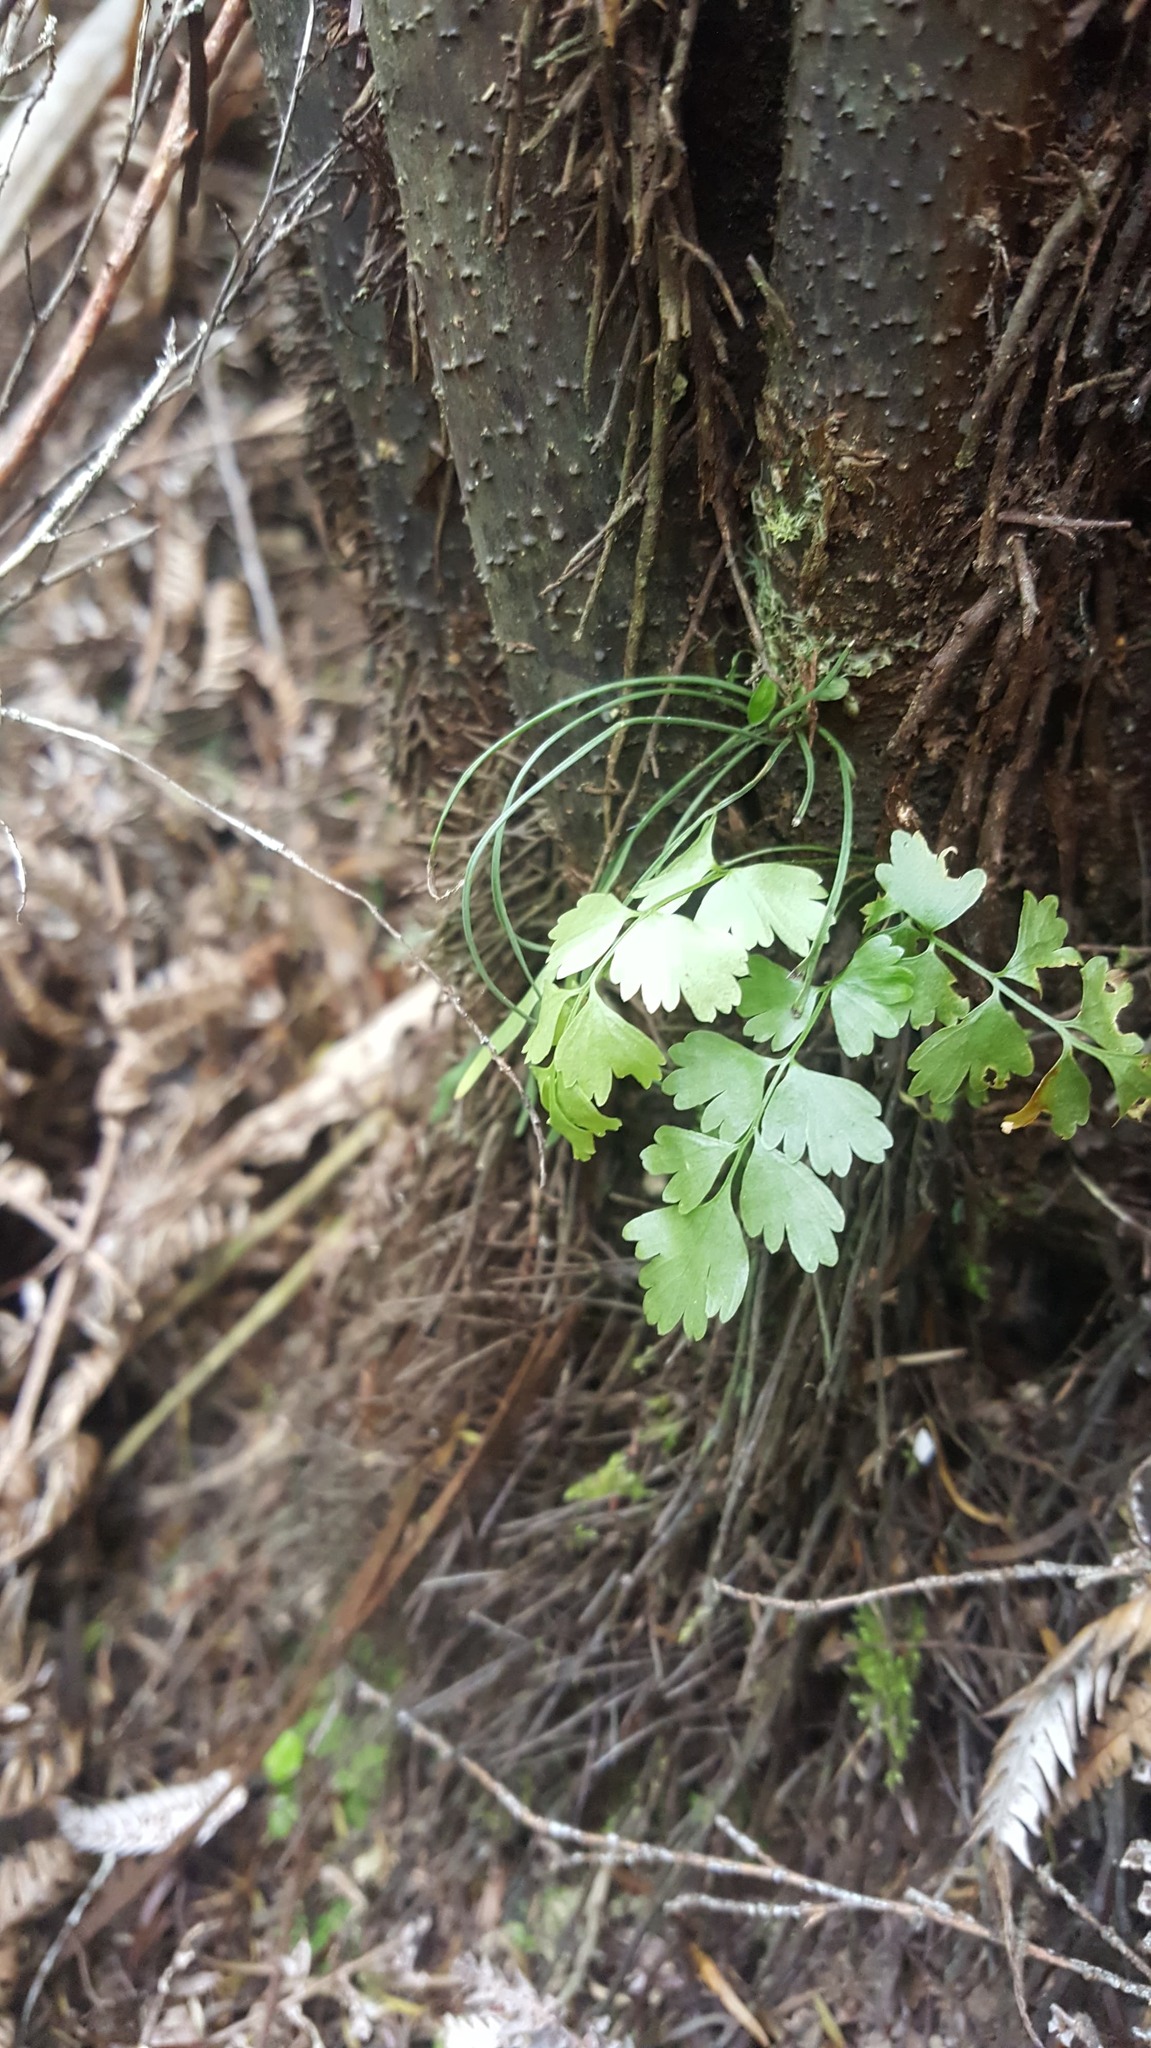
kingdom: Plantae
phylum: Tracheophyta
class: Polypodiopsida
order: Polypodiales
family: Aspleniaceae
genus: Asplenium
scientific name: Asplenium polyodon
